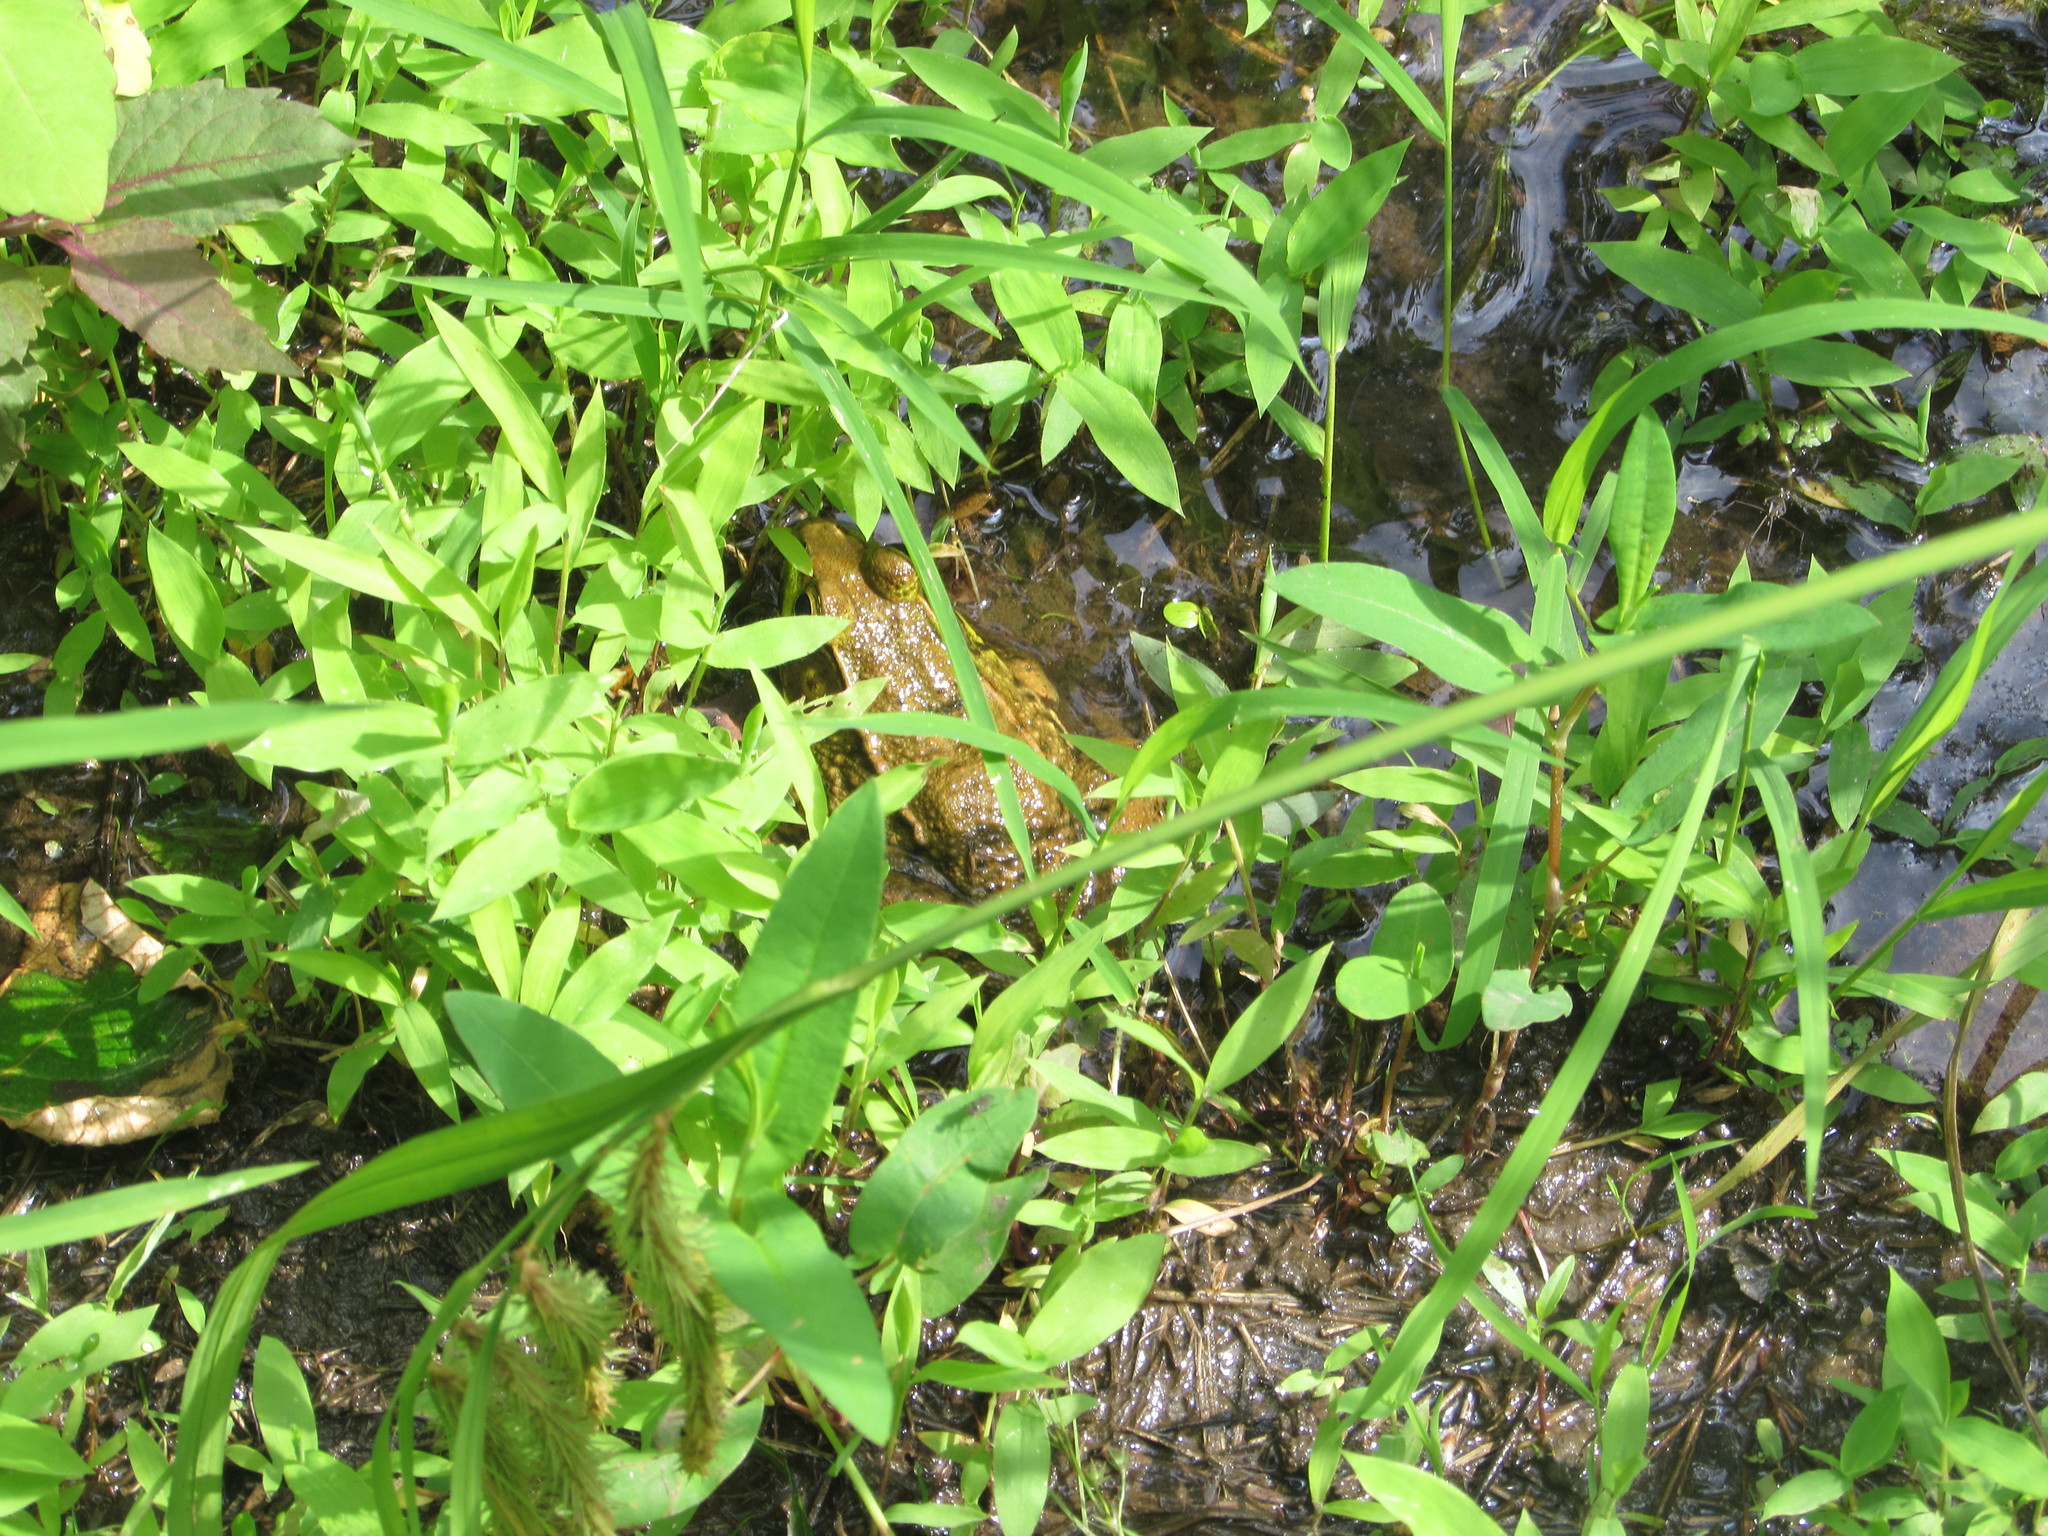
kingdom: Animalia
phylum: Chordata
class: Amphibia
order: Anura
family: Ranidae
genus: Lithobates
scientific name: Lithobates clamitans
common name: Green frog
